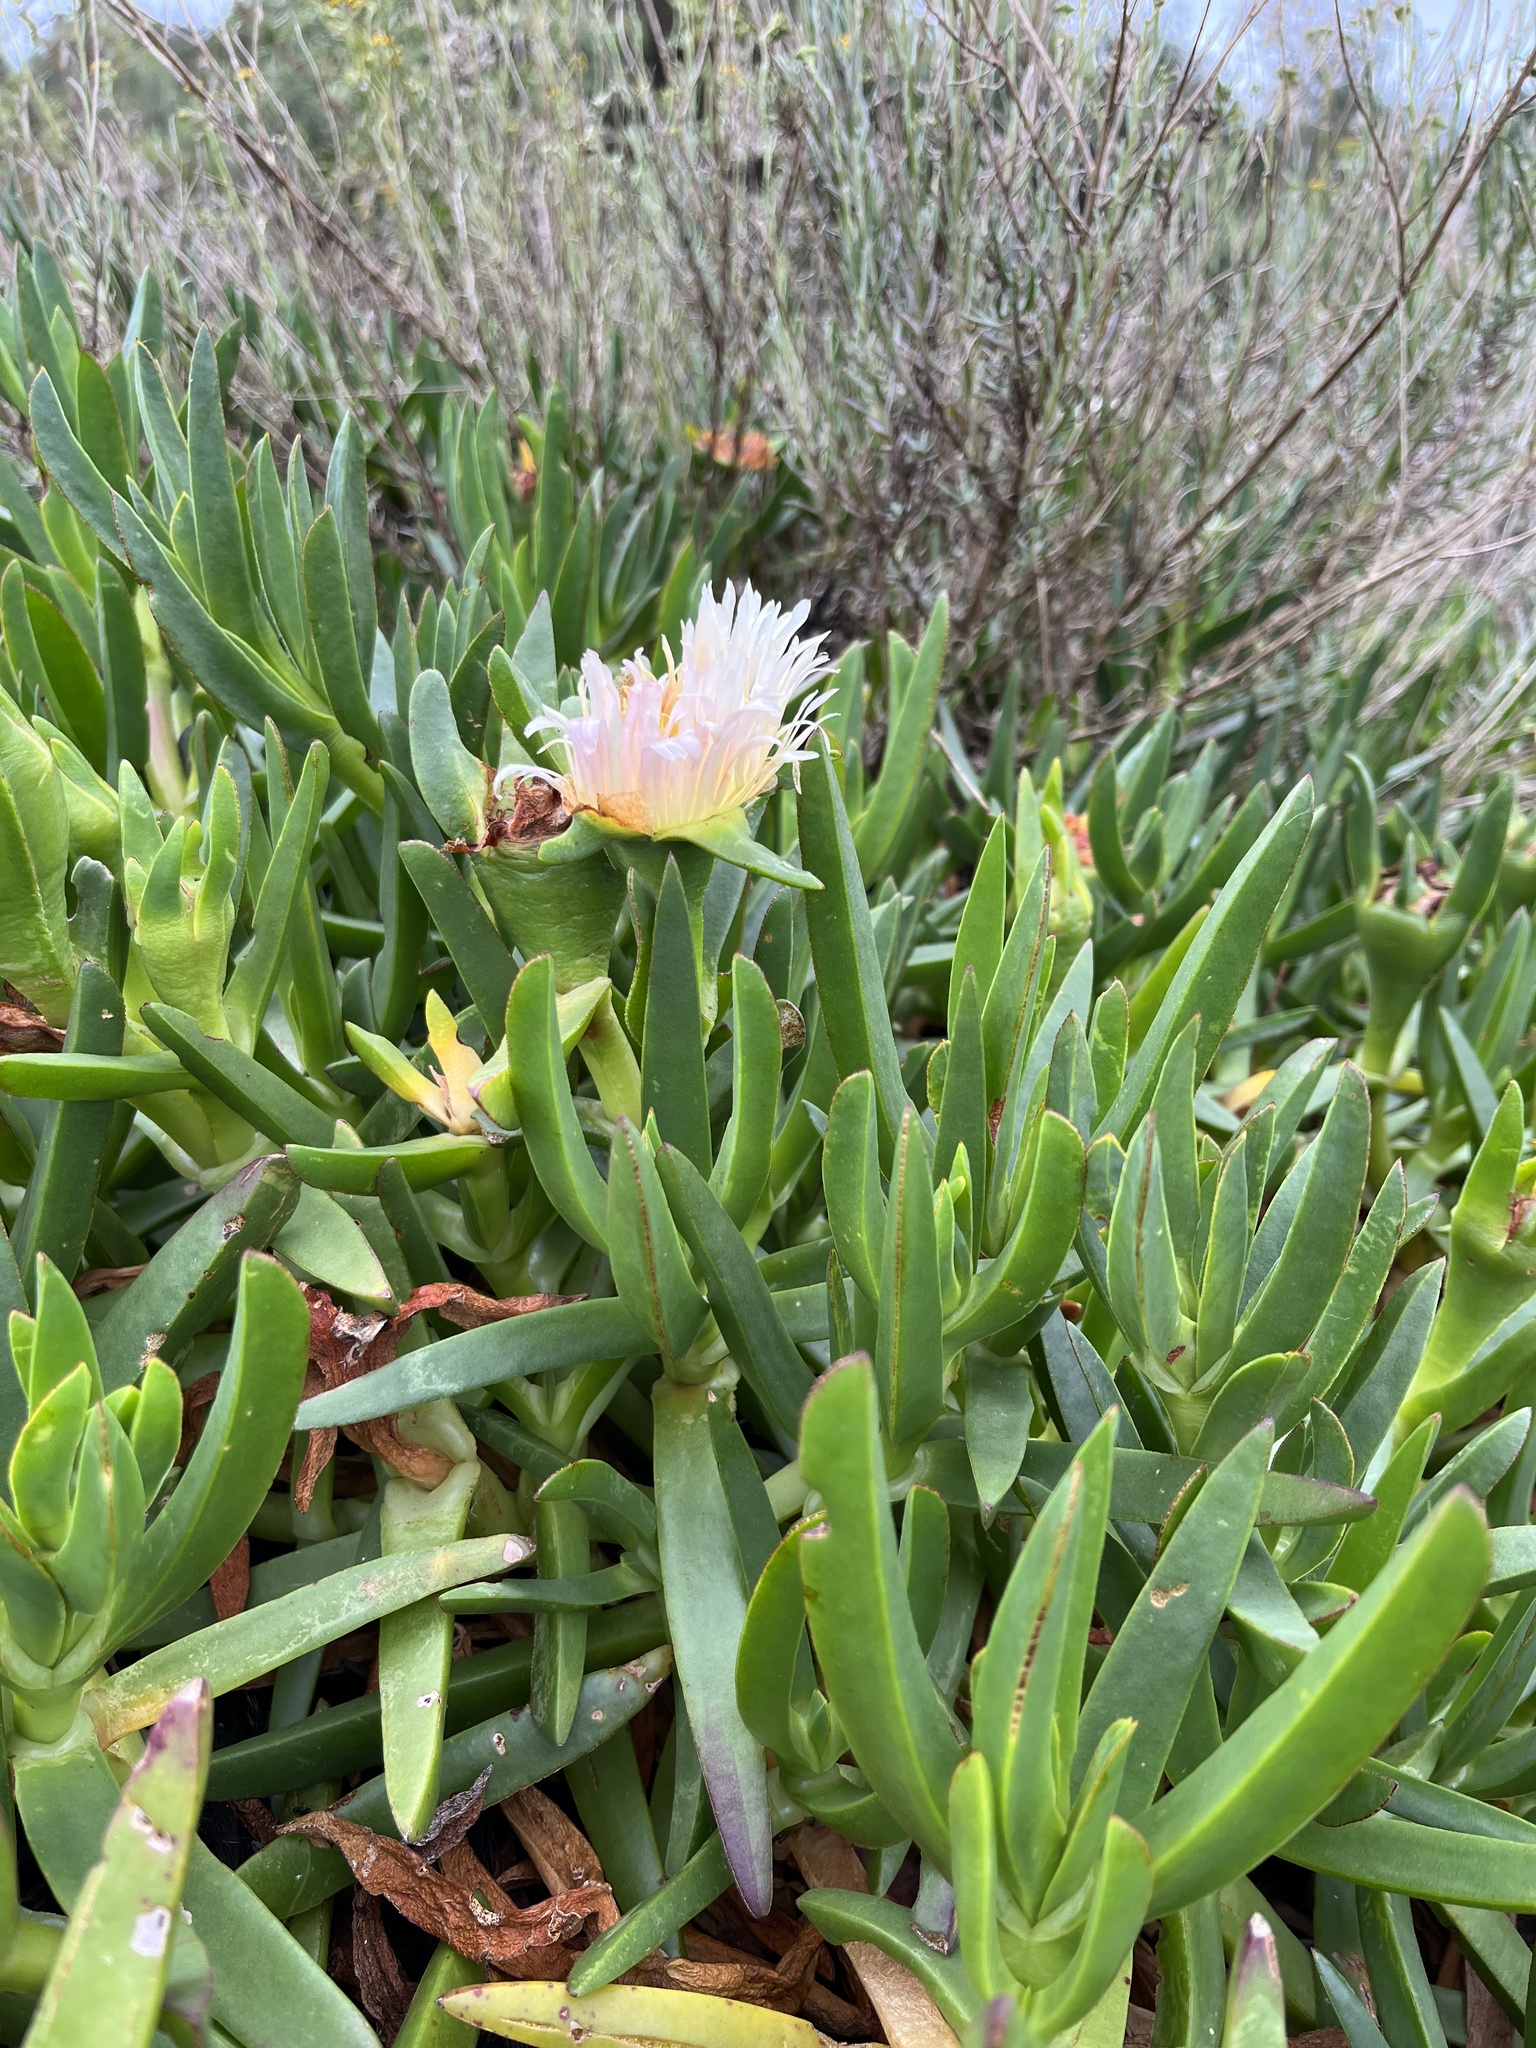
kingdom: Plantae
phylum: Tracheophyta
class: Magnoliopsida
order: Caryophyllales
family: Aizoaceae
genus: Carpobrotus
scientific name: Carpobrotus edulis
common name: Hottentot-fig
